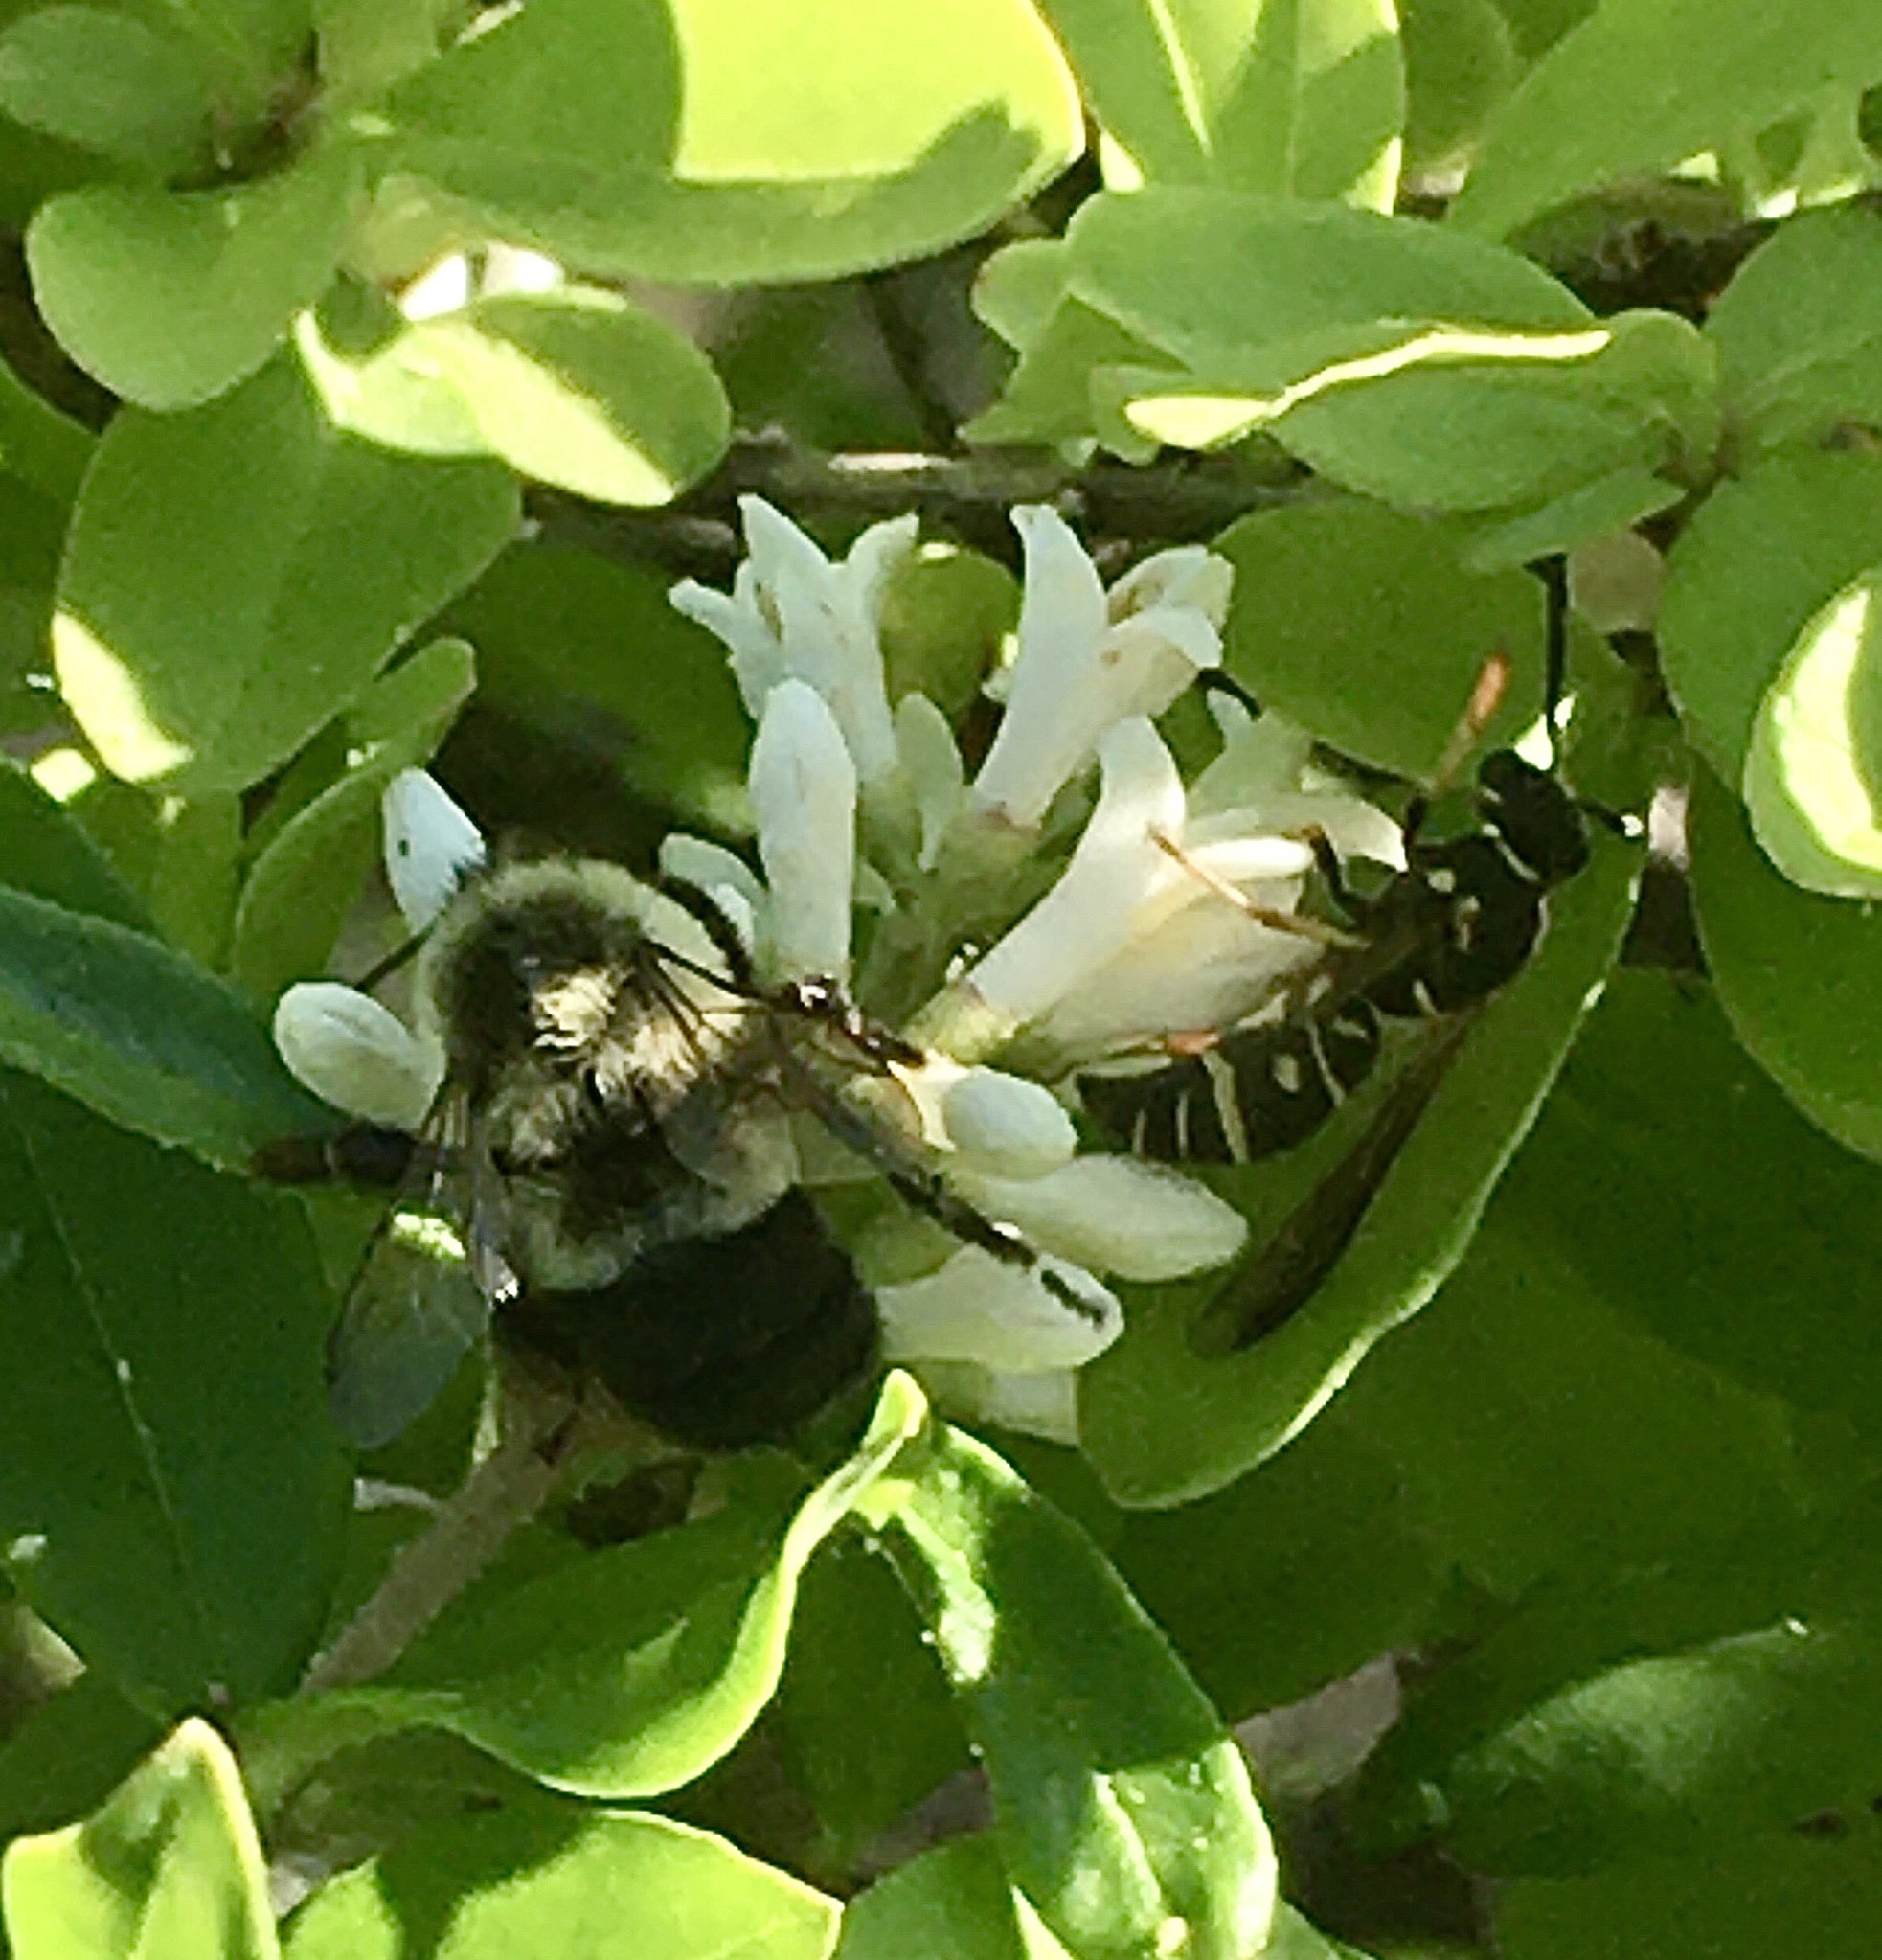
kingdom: Animalia
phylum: Arthropoda
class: Insecta
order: Hymenoptera
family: Apidae
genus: Bombus
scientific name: Bombus impatiens
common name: Common eastern bumble bee
